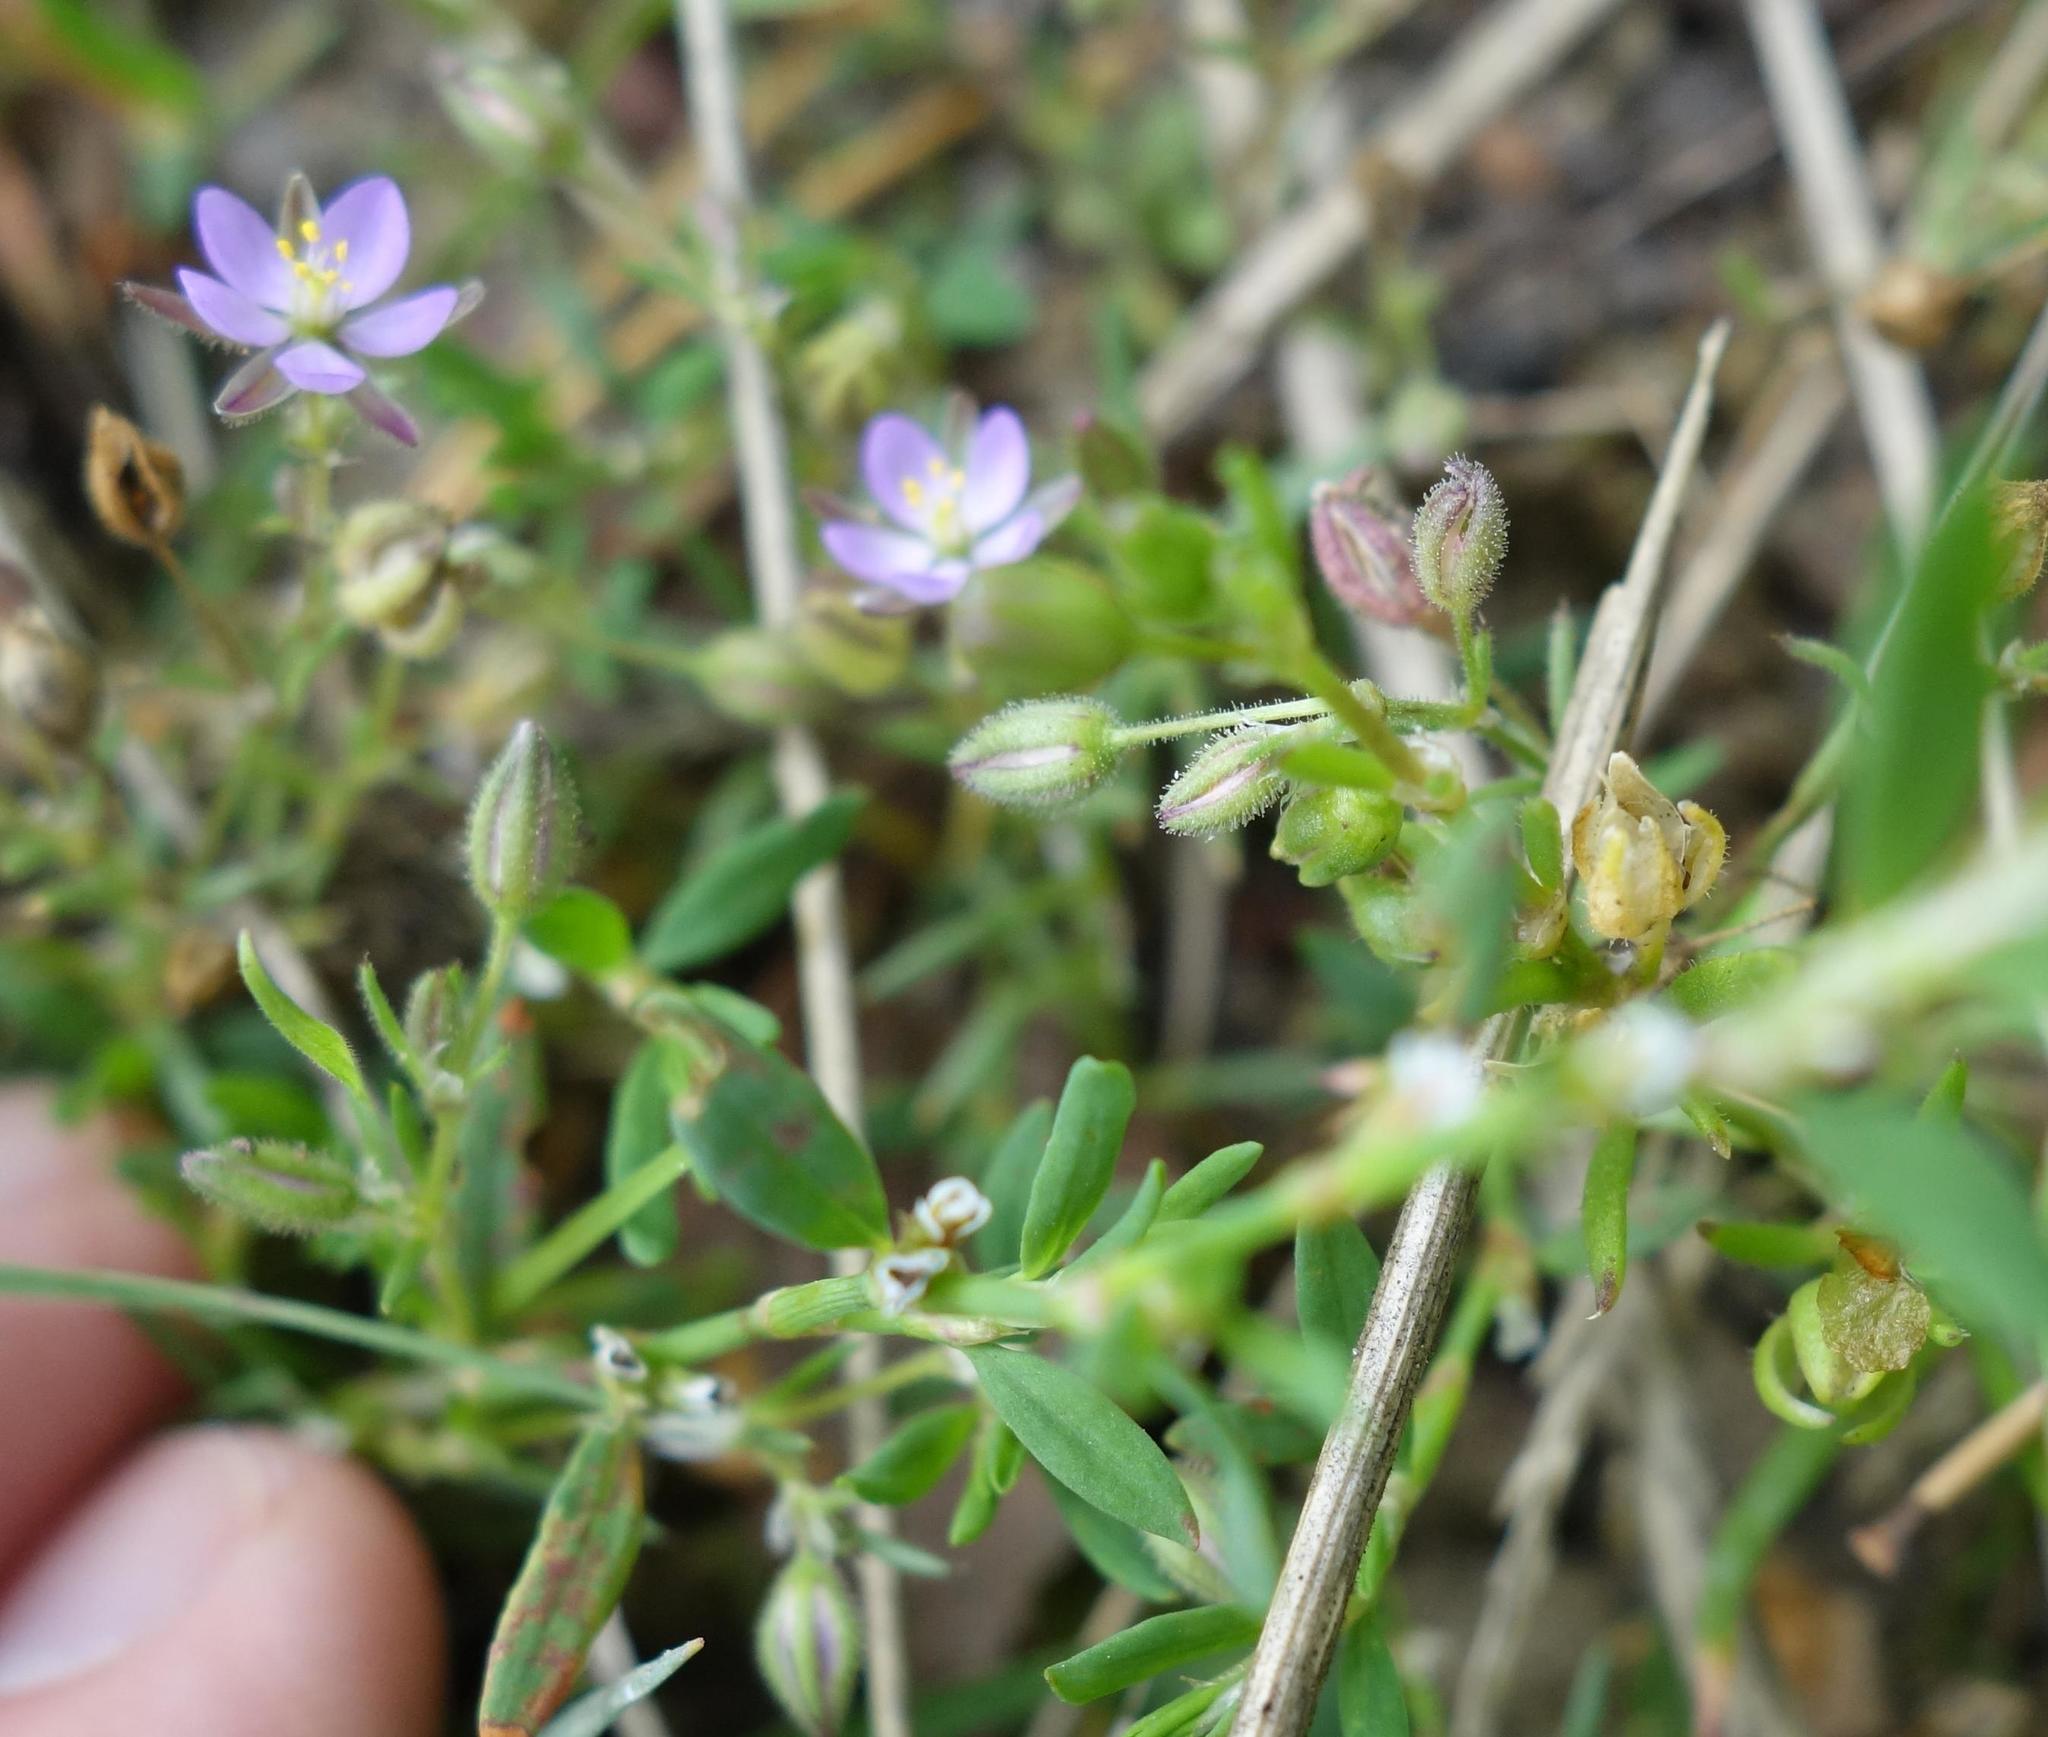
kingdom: Plantae
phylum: Tracheophyta
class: Magnoliopsida
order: Caryophyllales
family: Caryophyllaceae
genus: Spergularia
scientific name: Spergularia rubra
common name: Red sand-spurrey
